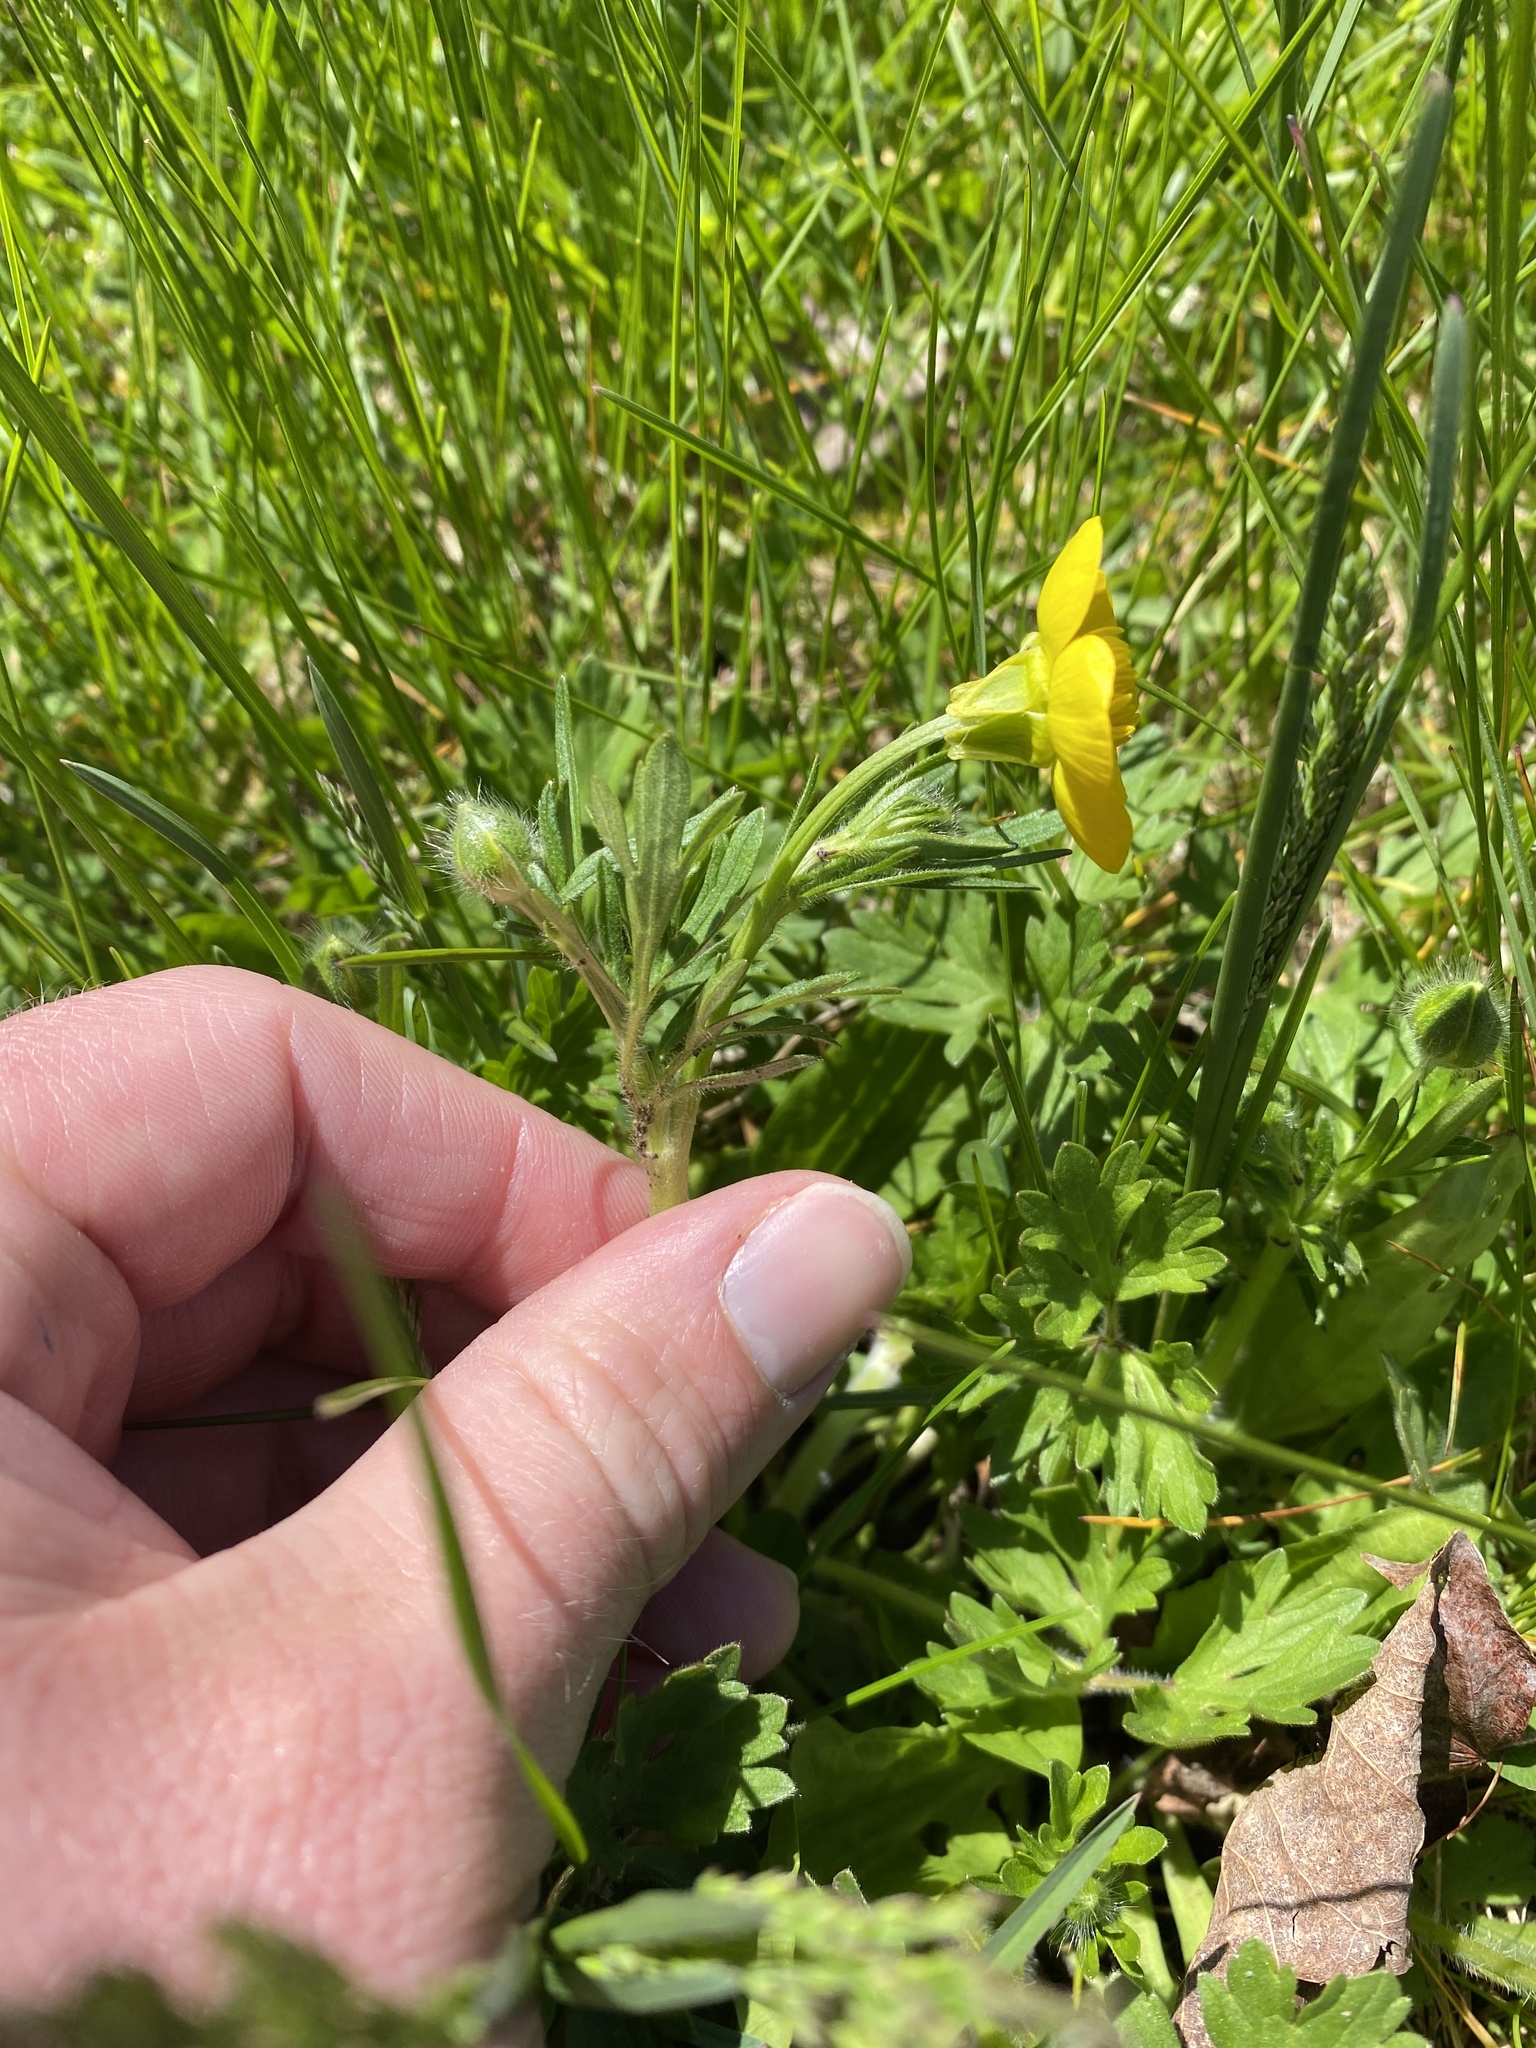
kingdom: Plantae
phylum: Tracheophyta
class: Magnoliopsida
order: Ranunculales
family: Ranunculaceae
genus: Ranunculus
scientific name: Ranunculus bulbosus
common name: Bulbous buttercup
